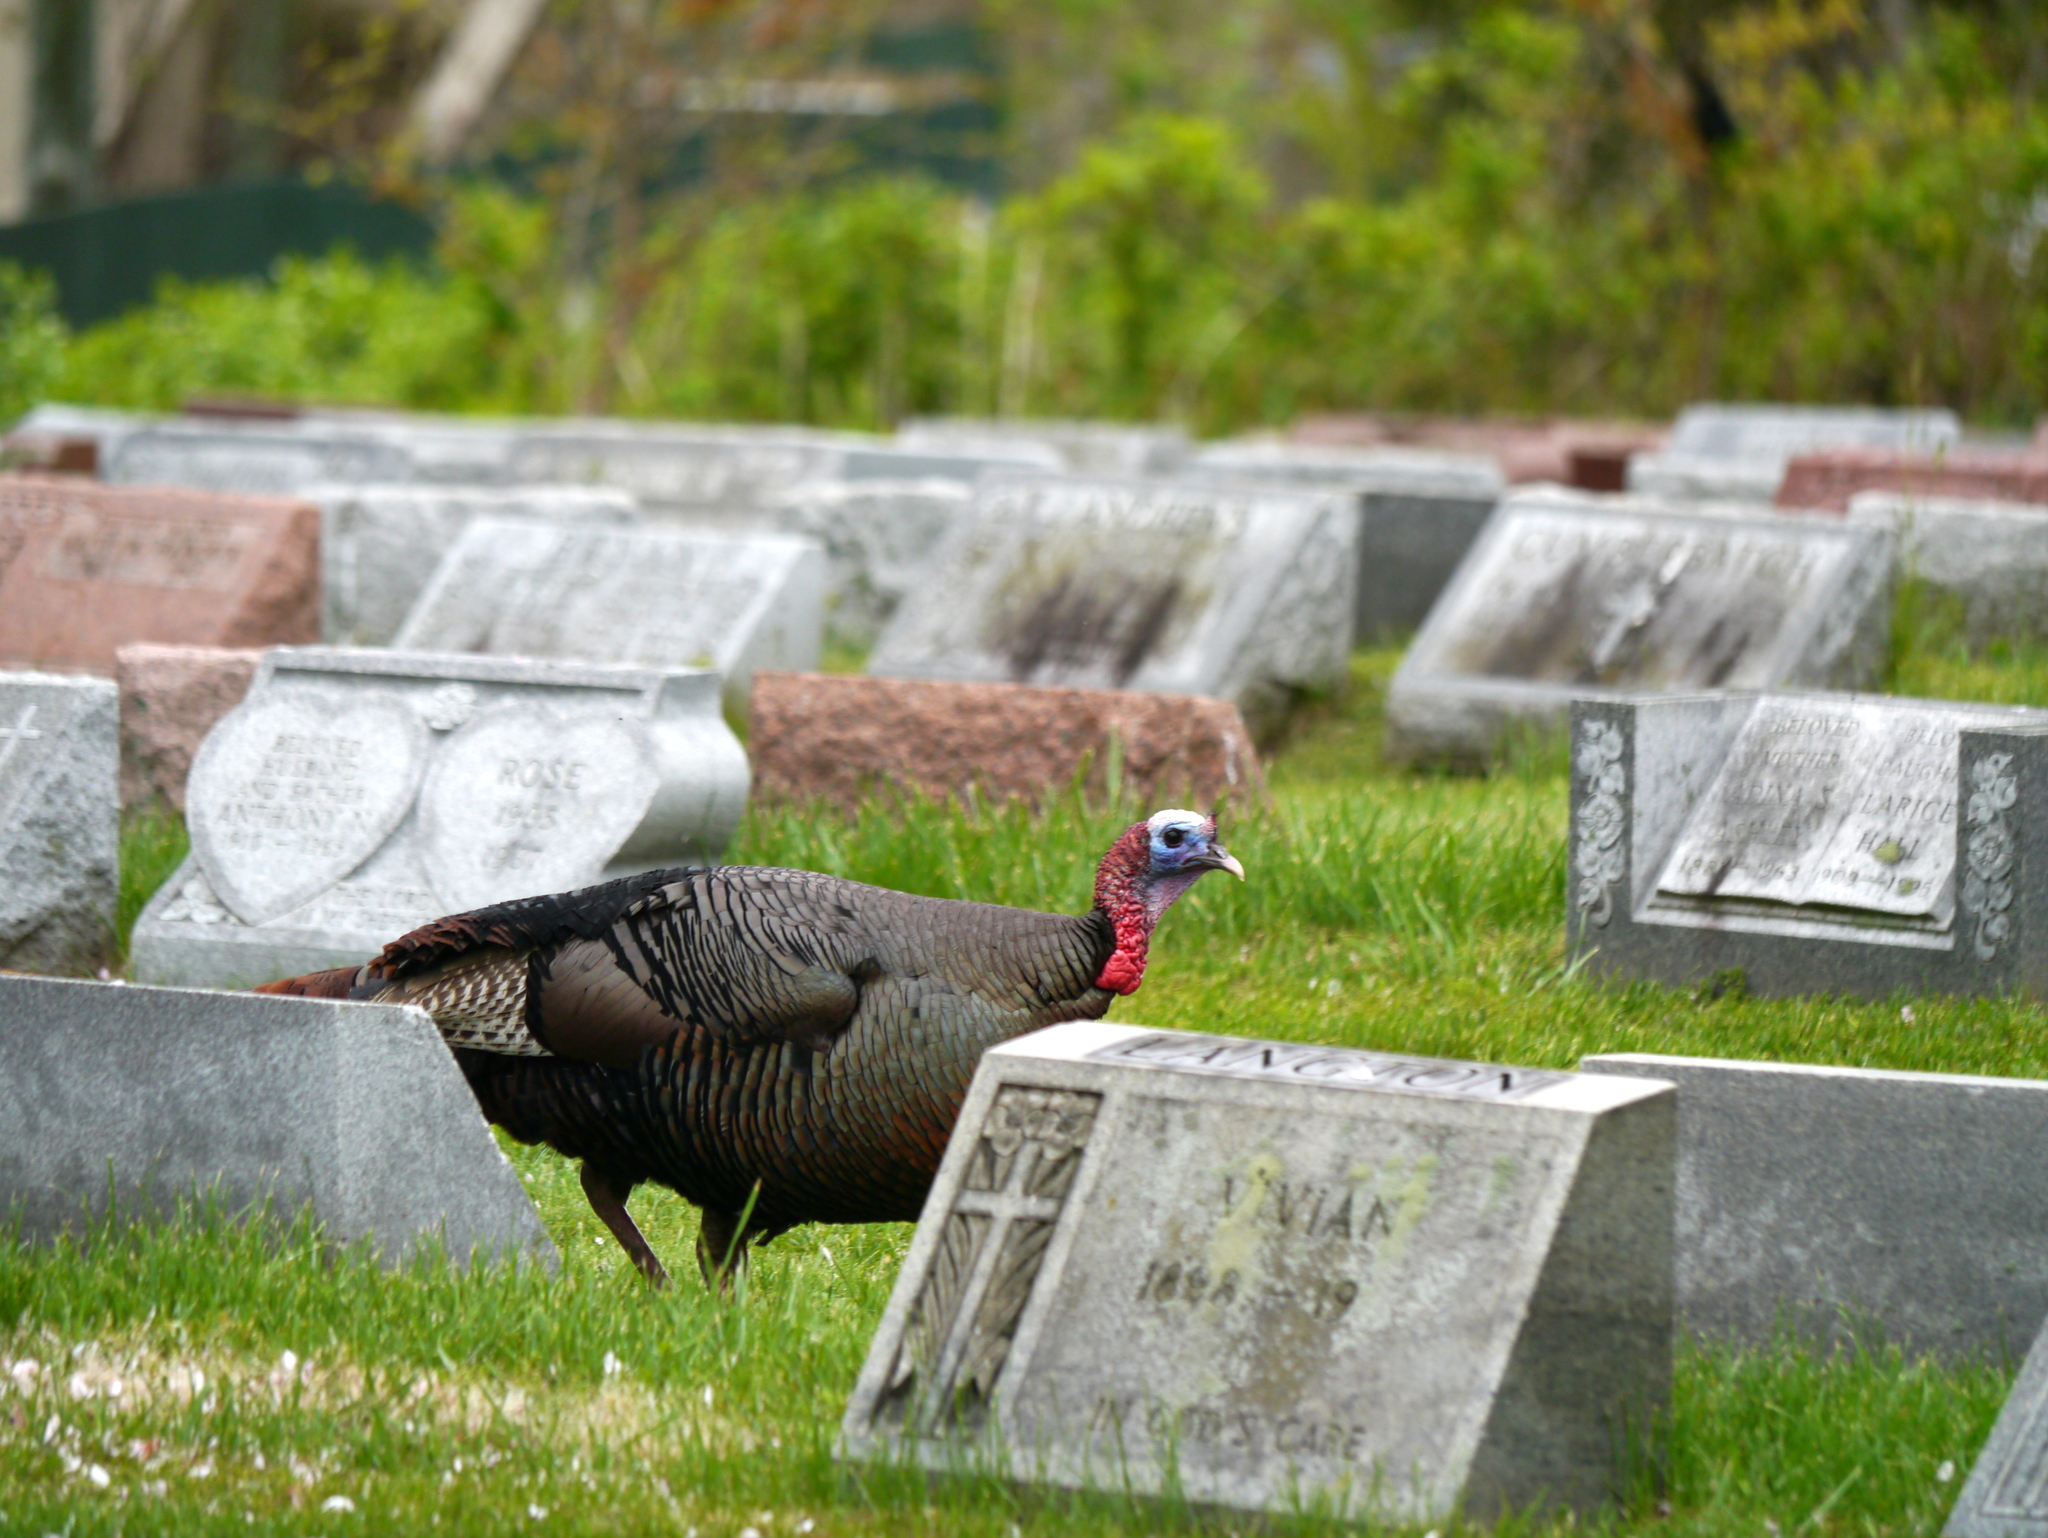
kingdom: Animalia
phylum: Chordata
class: Aves
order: Galliformes
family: Phasianidae
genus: Meleagris
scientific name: Meleagris gallopavo
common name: Wild turkey
